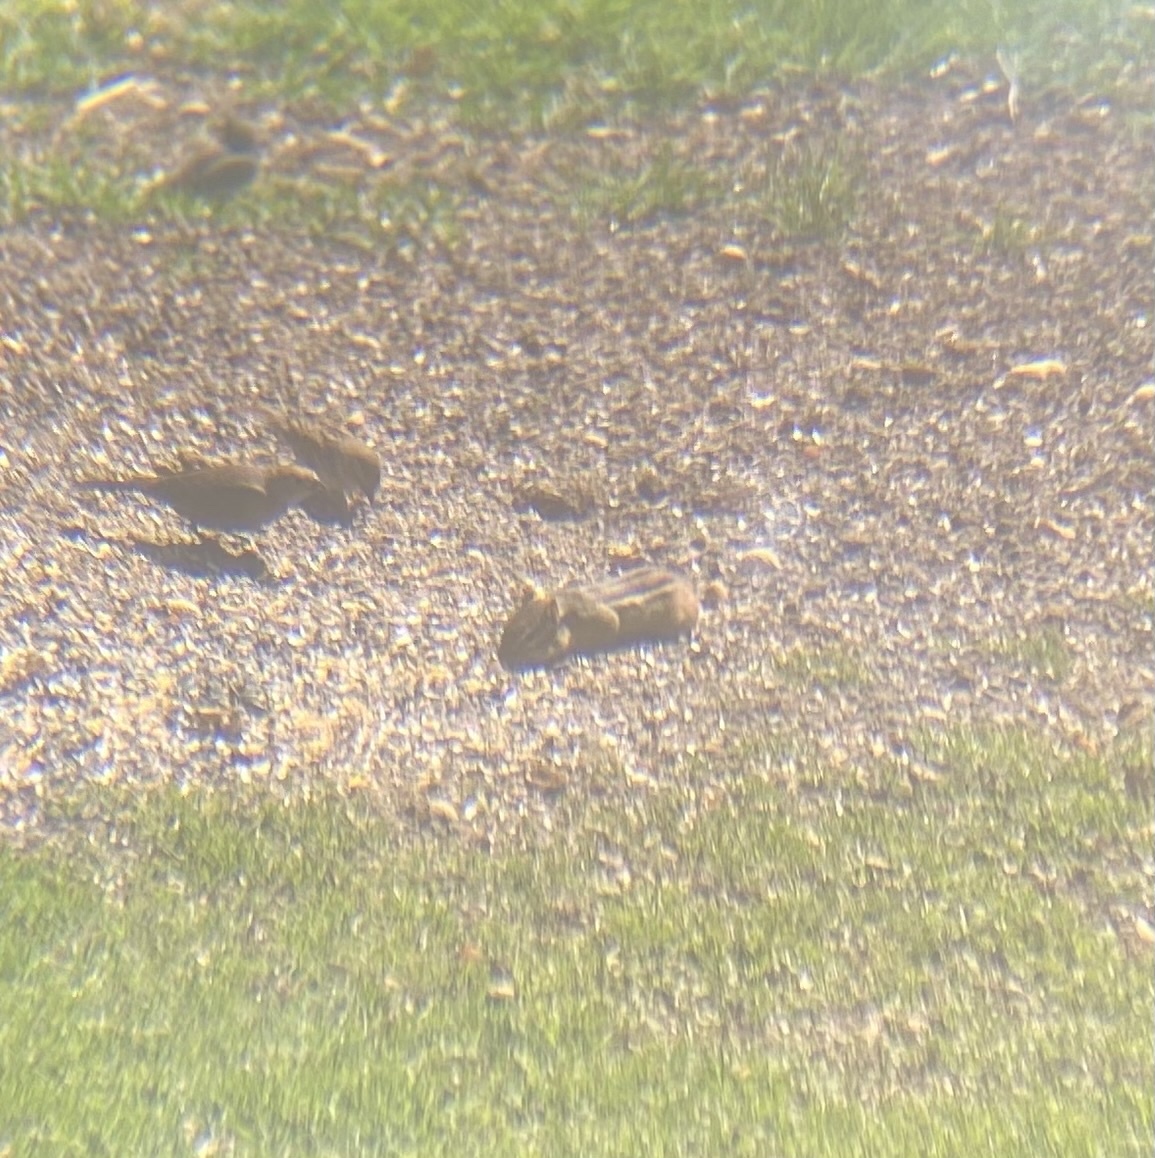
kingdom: Animalia
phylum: Chordata
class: Mammalia
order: Rodentia
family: Sciuridae
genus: Tamias
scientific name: Tamias striatus
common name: Eastern chipmunk
